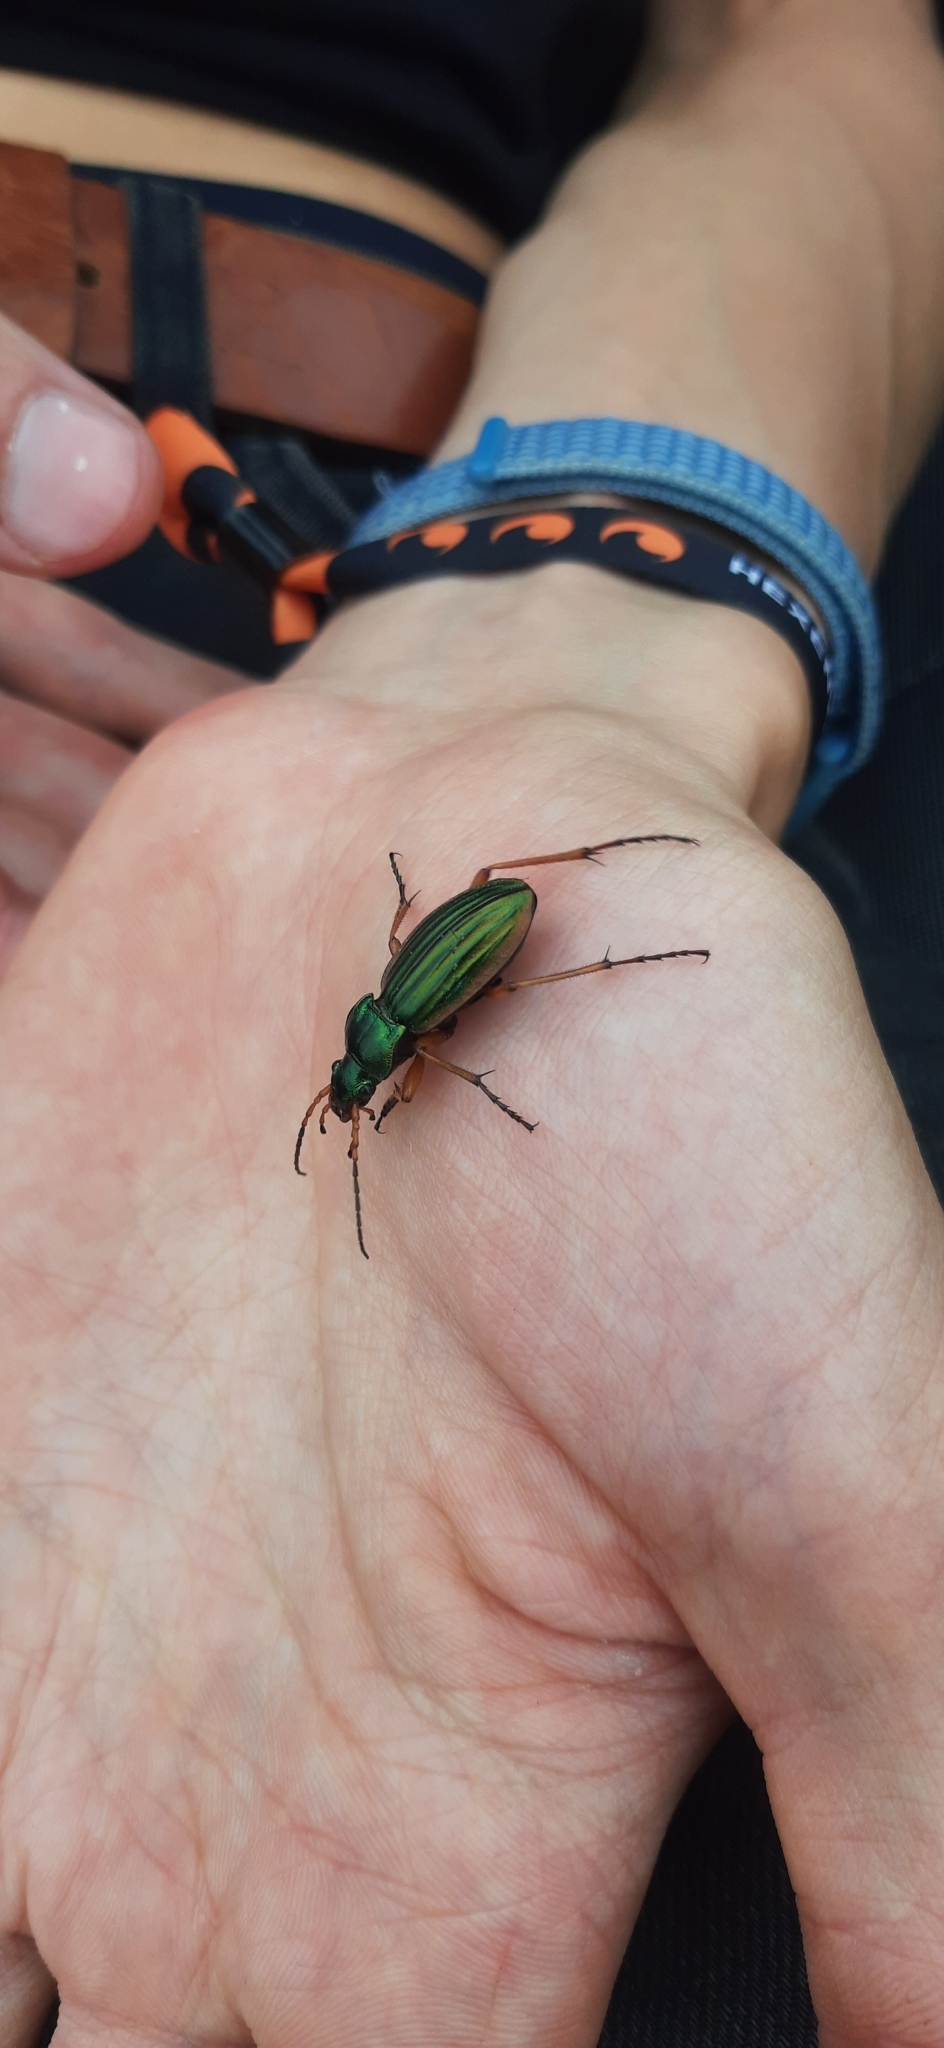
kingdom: Animalia
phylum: Arthropoda
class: Insecta
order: Coleoptera
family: Carabidae
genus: Carabus
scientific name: Carabus auratus
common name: Golden ground beetle
